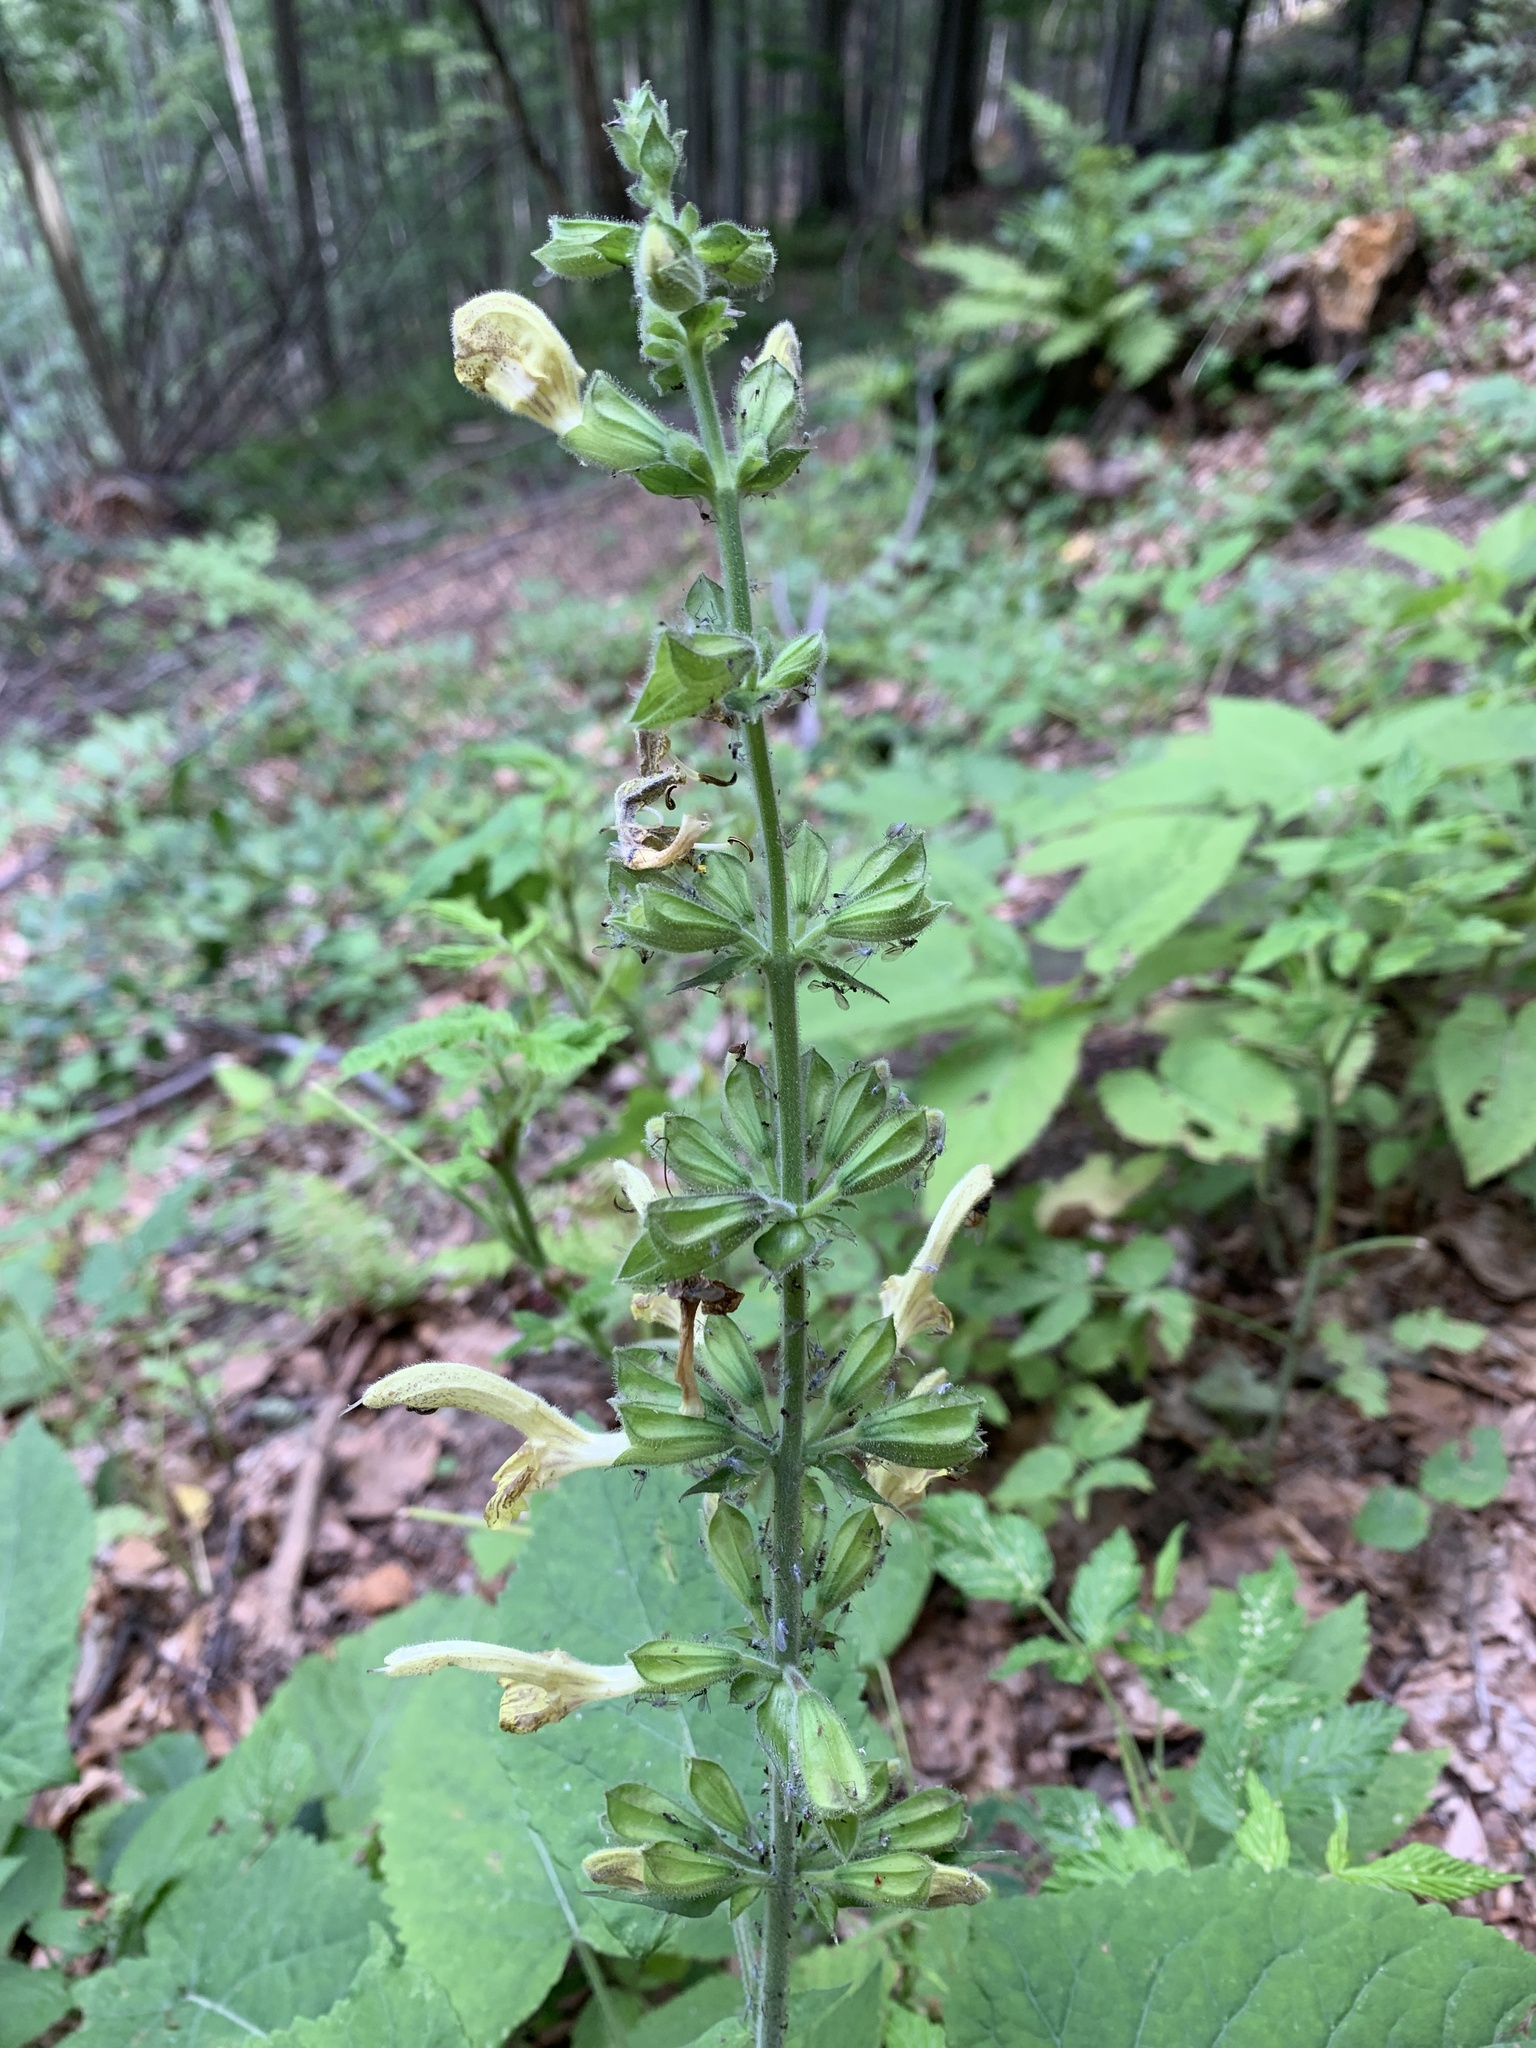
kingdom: Plantae
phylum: Tracheophyta
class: Magnoliopsida
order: Lamiales
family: Lamiaceae
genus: Salvia
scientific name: Salvia glutinosa
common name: Sticky clary
